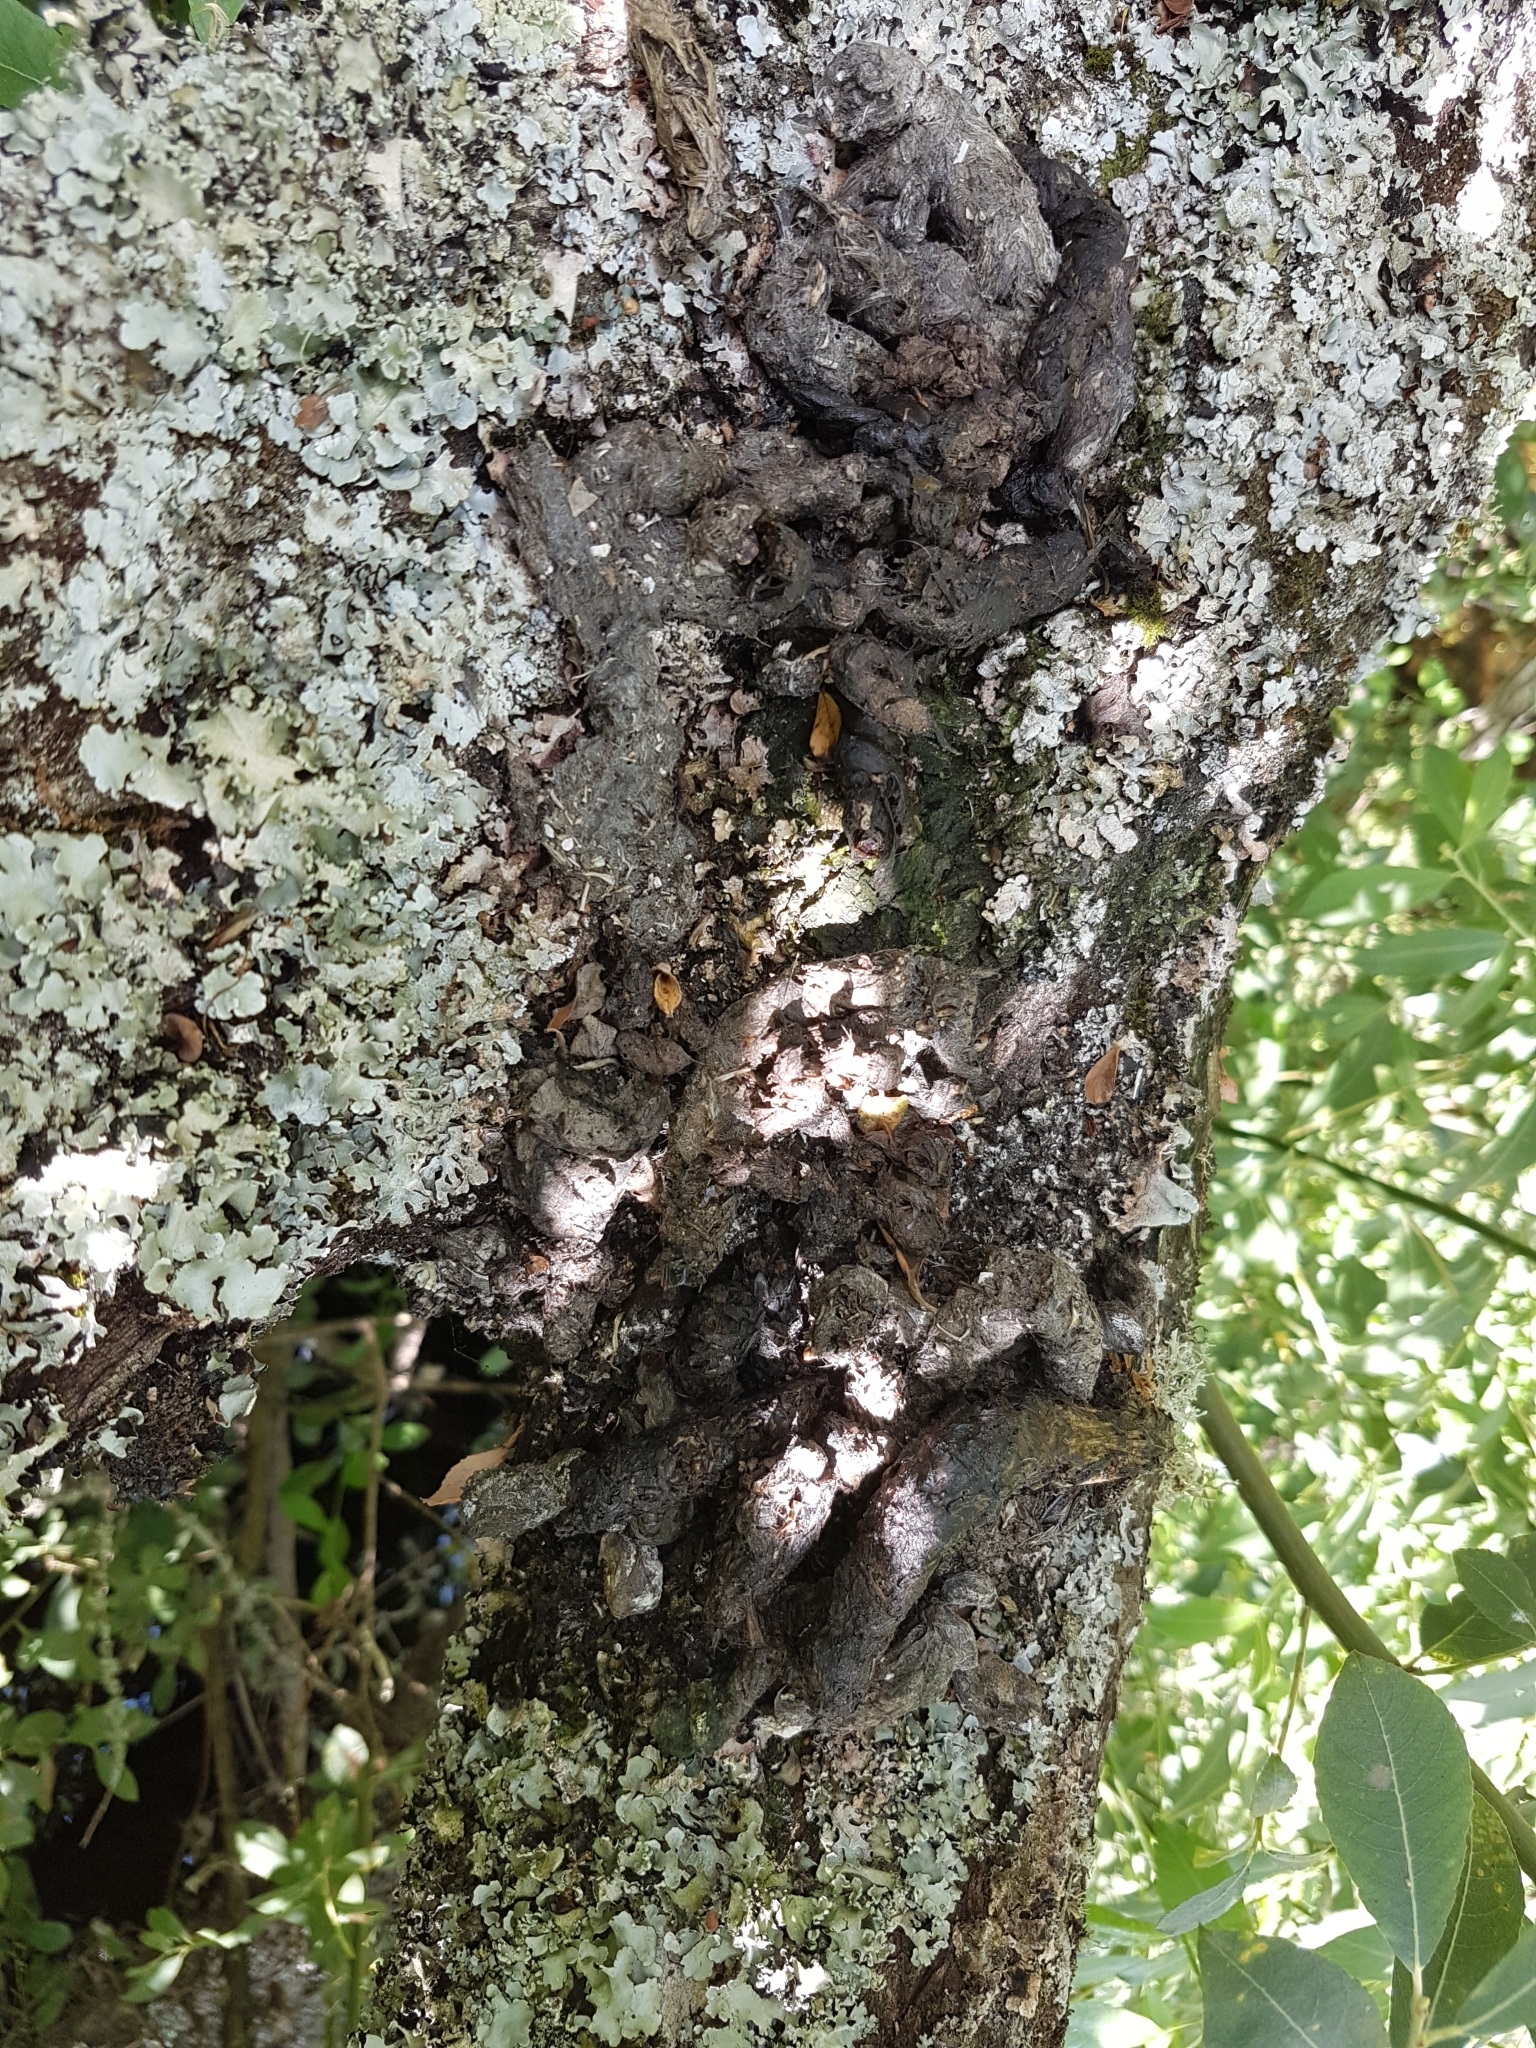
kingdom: Animalia
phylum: Chordata
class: Mammalia
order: Carnivora
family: Viverridae
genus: Genetta
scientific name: Genetta genetta
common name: Common genet
